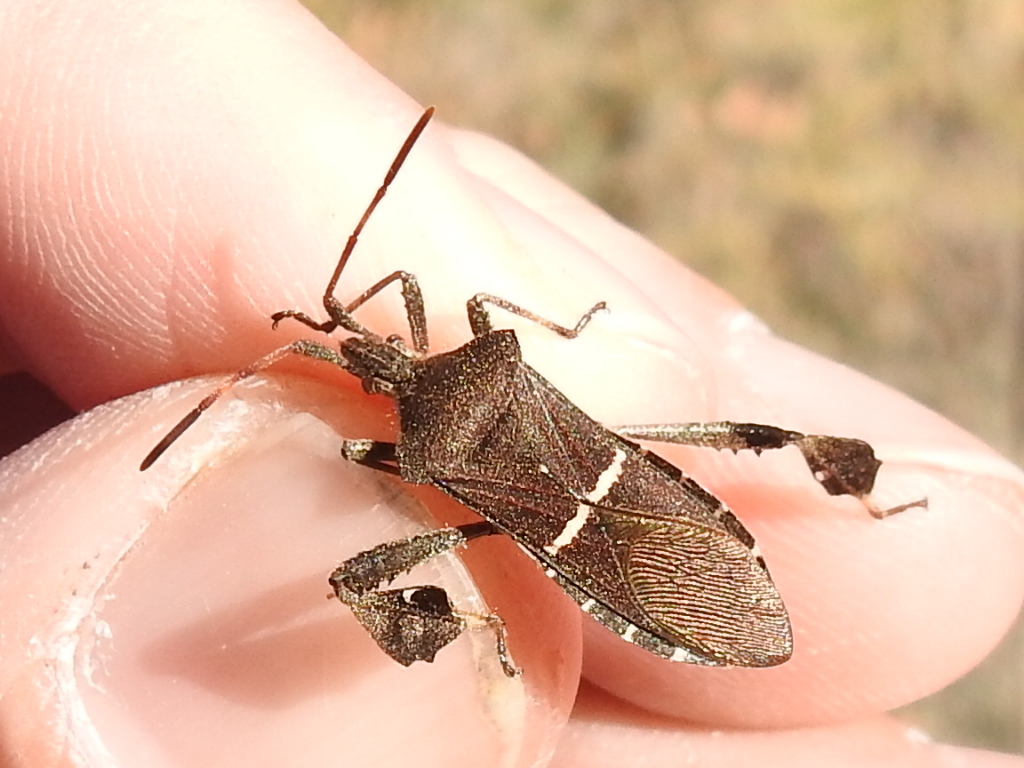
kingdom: Animalia
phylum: Arthropoda
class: Insecta
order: Hemiptera
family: Coreidae
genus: Leptoglossus
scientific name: Leptoglossus phyllopus
